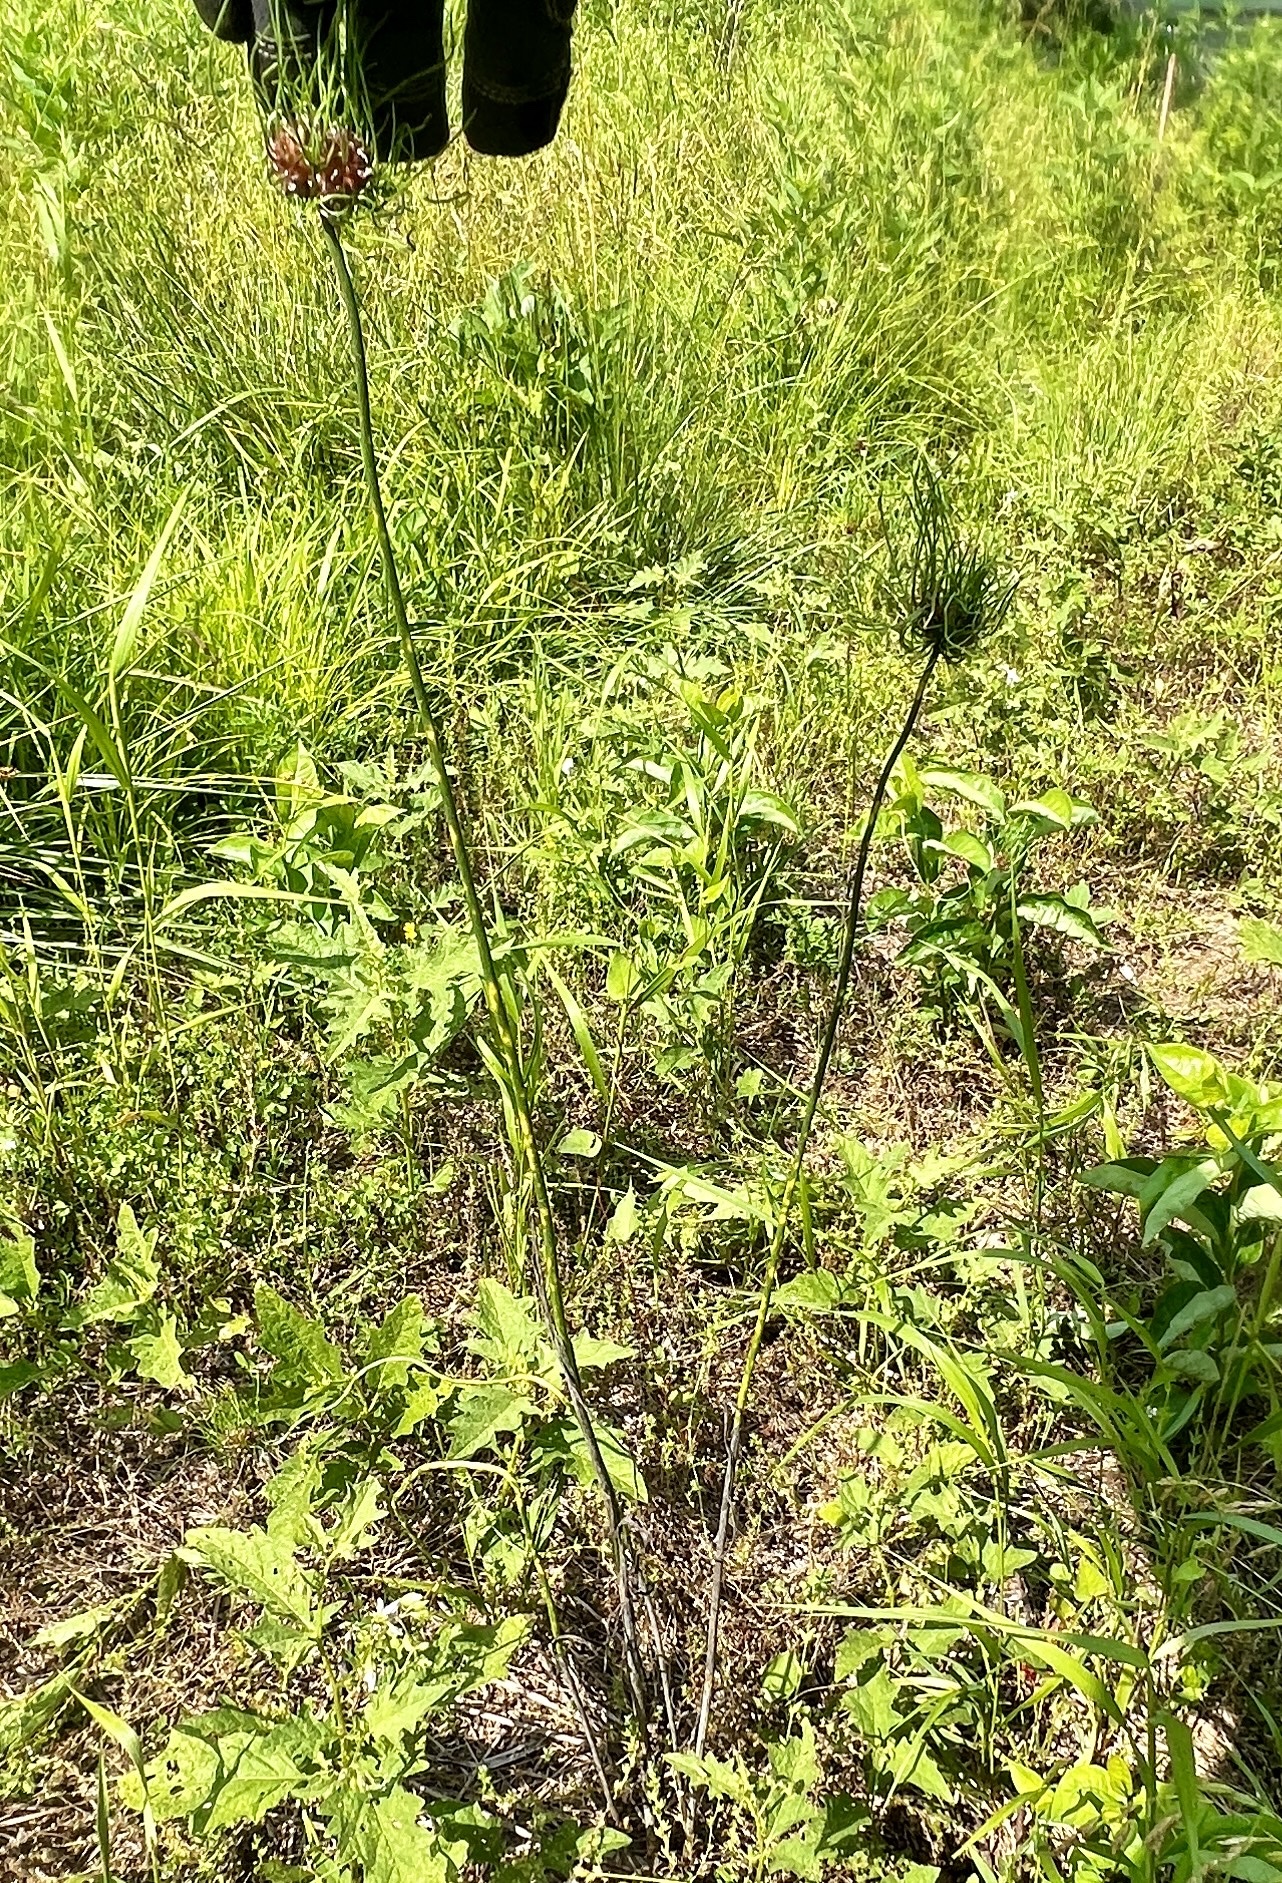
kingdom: Plantae
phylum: Tracheophyta
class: Liliopsida
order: Asparagales
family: Amaryllidaceae
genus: Allium
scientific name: Allium vineale
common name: Crow garlic
